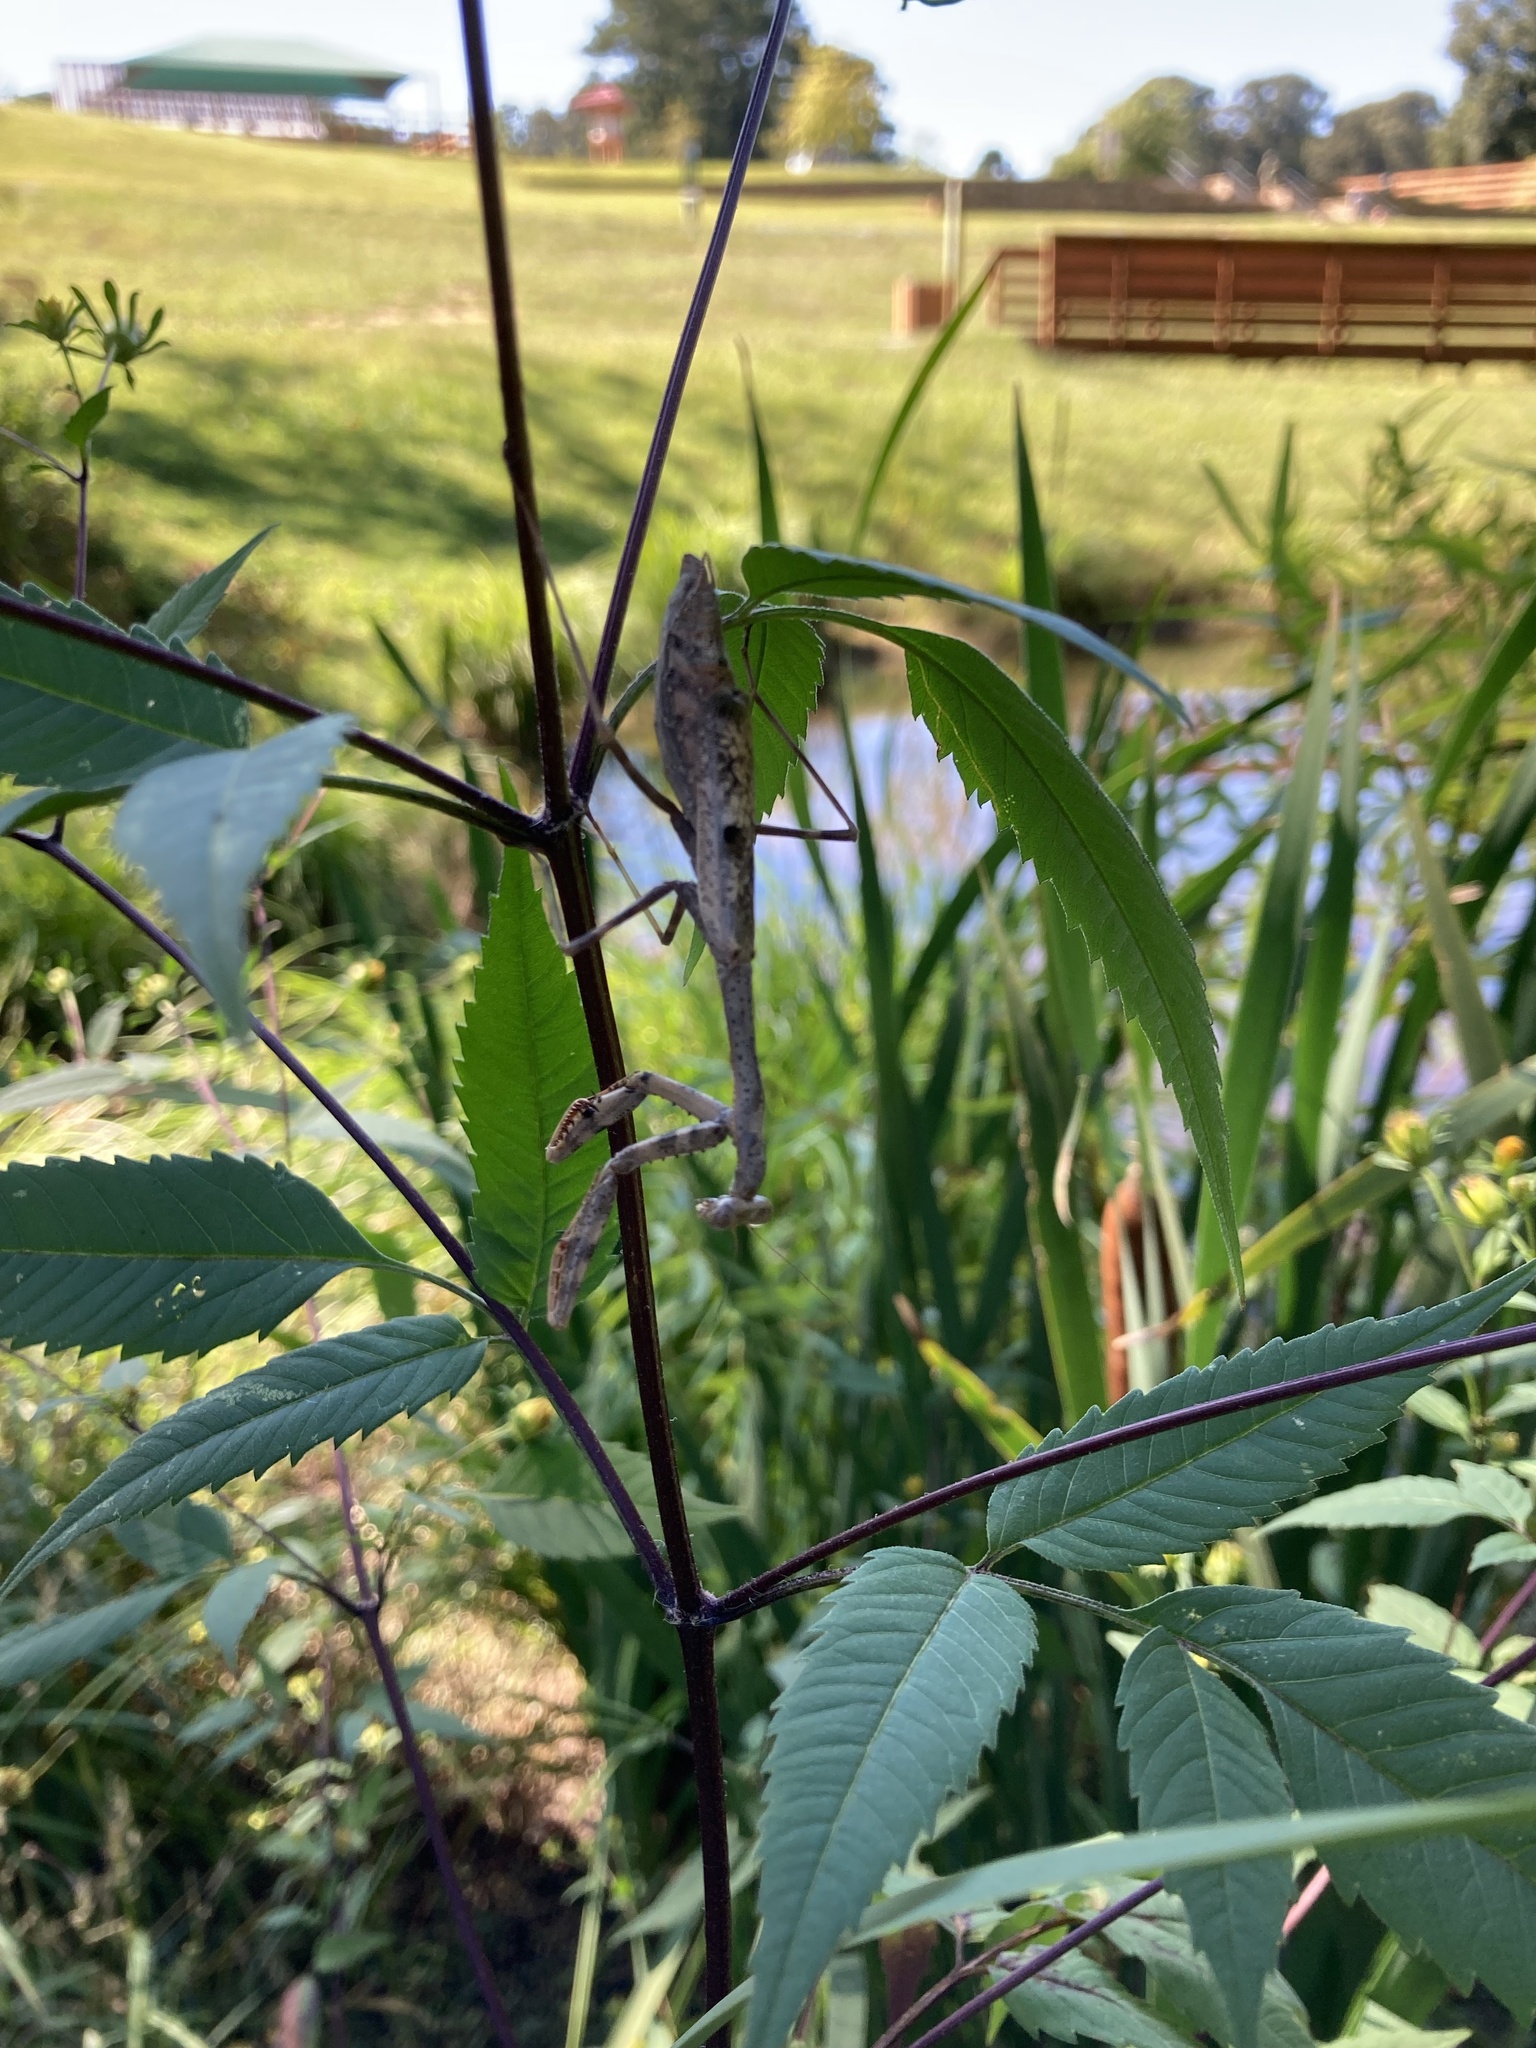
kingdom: Animalia
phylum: Arthropoda
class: Insecta
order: Mantodea
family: Mantidae
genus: Stagmomantis
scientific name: Stagmomantis carolina
